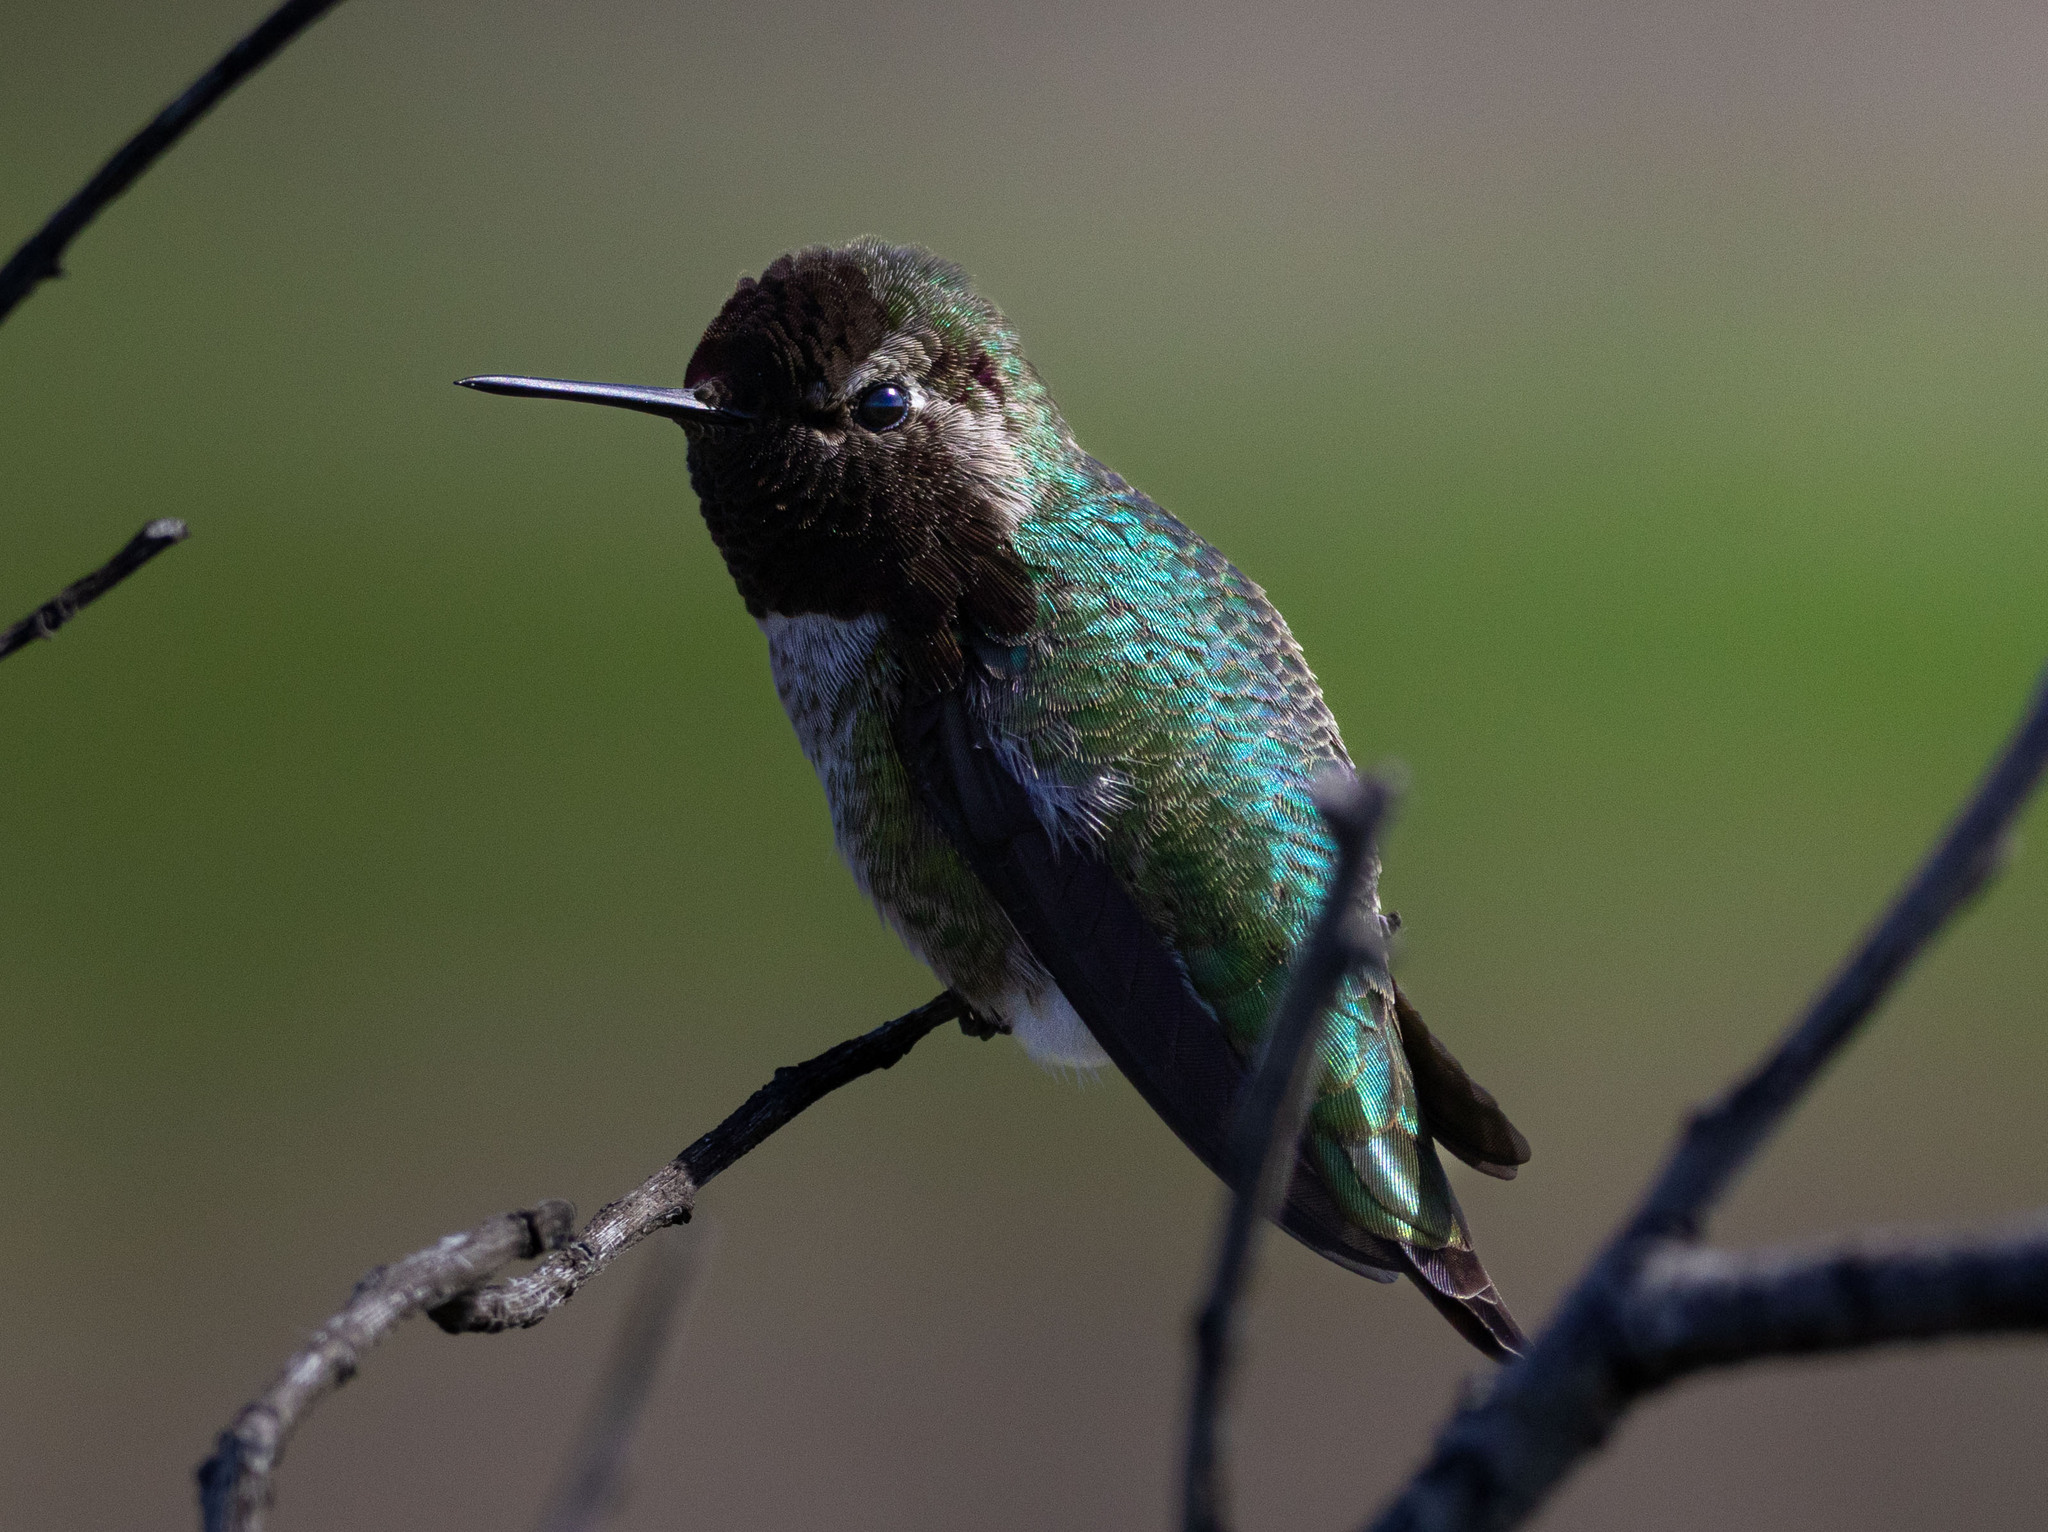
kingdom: Animalia
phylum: Chordata
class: Aves
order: Apodiformes
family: Trochilidae
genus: Calypte
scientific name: Calypte anna
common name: Anna's hummingbird
